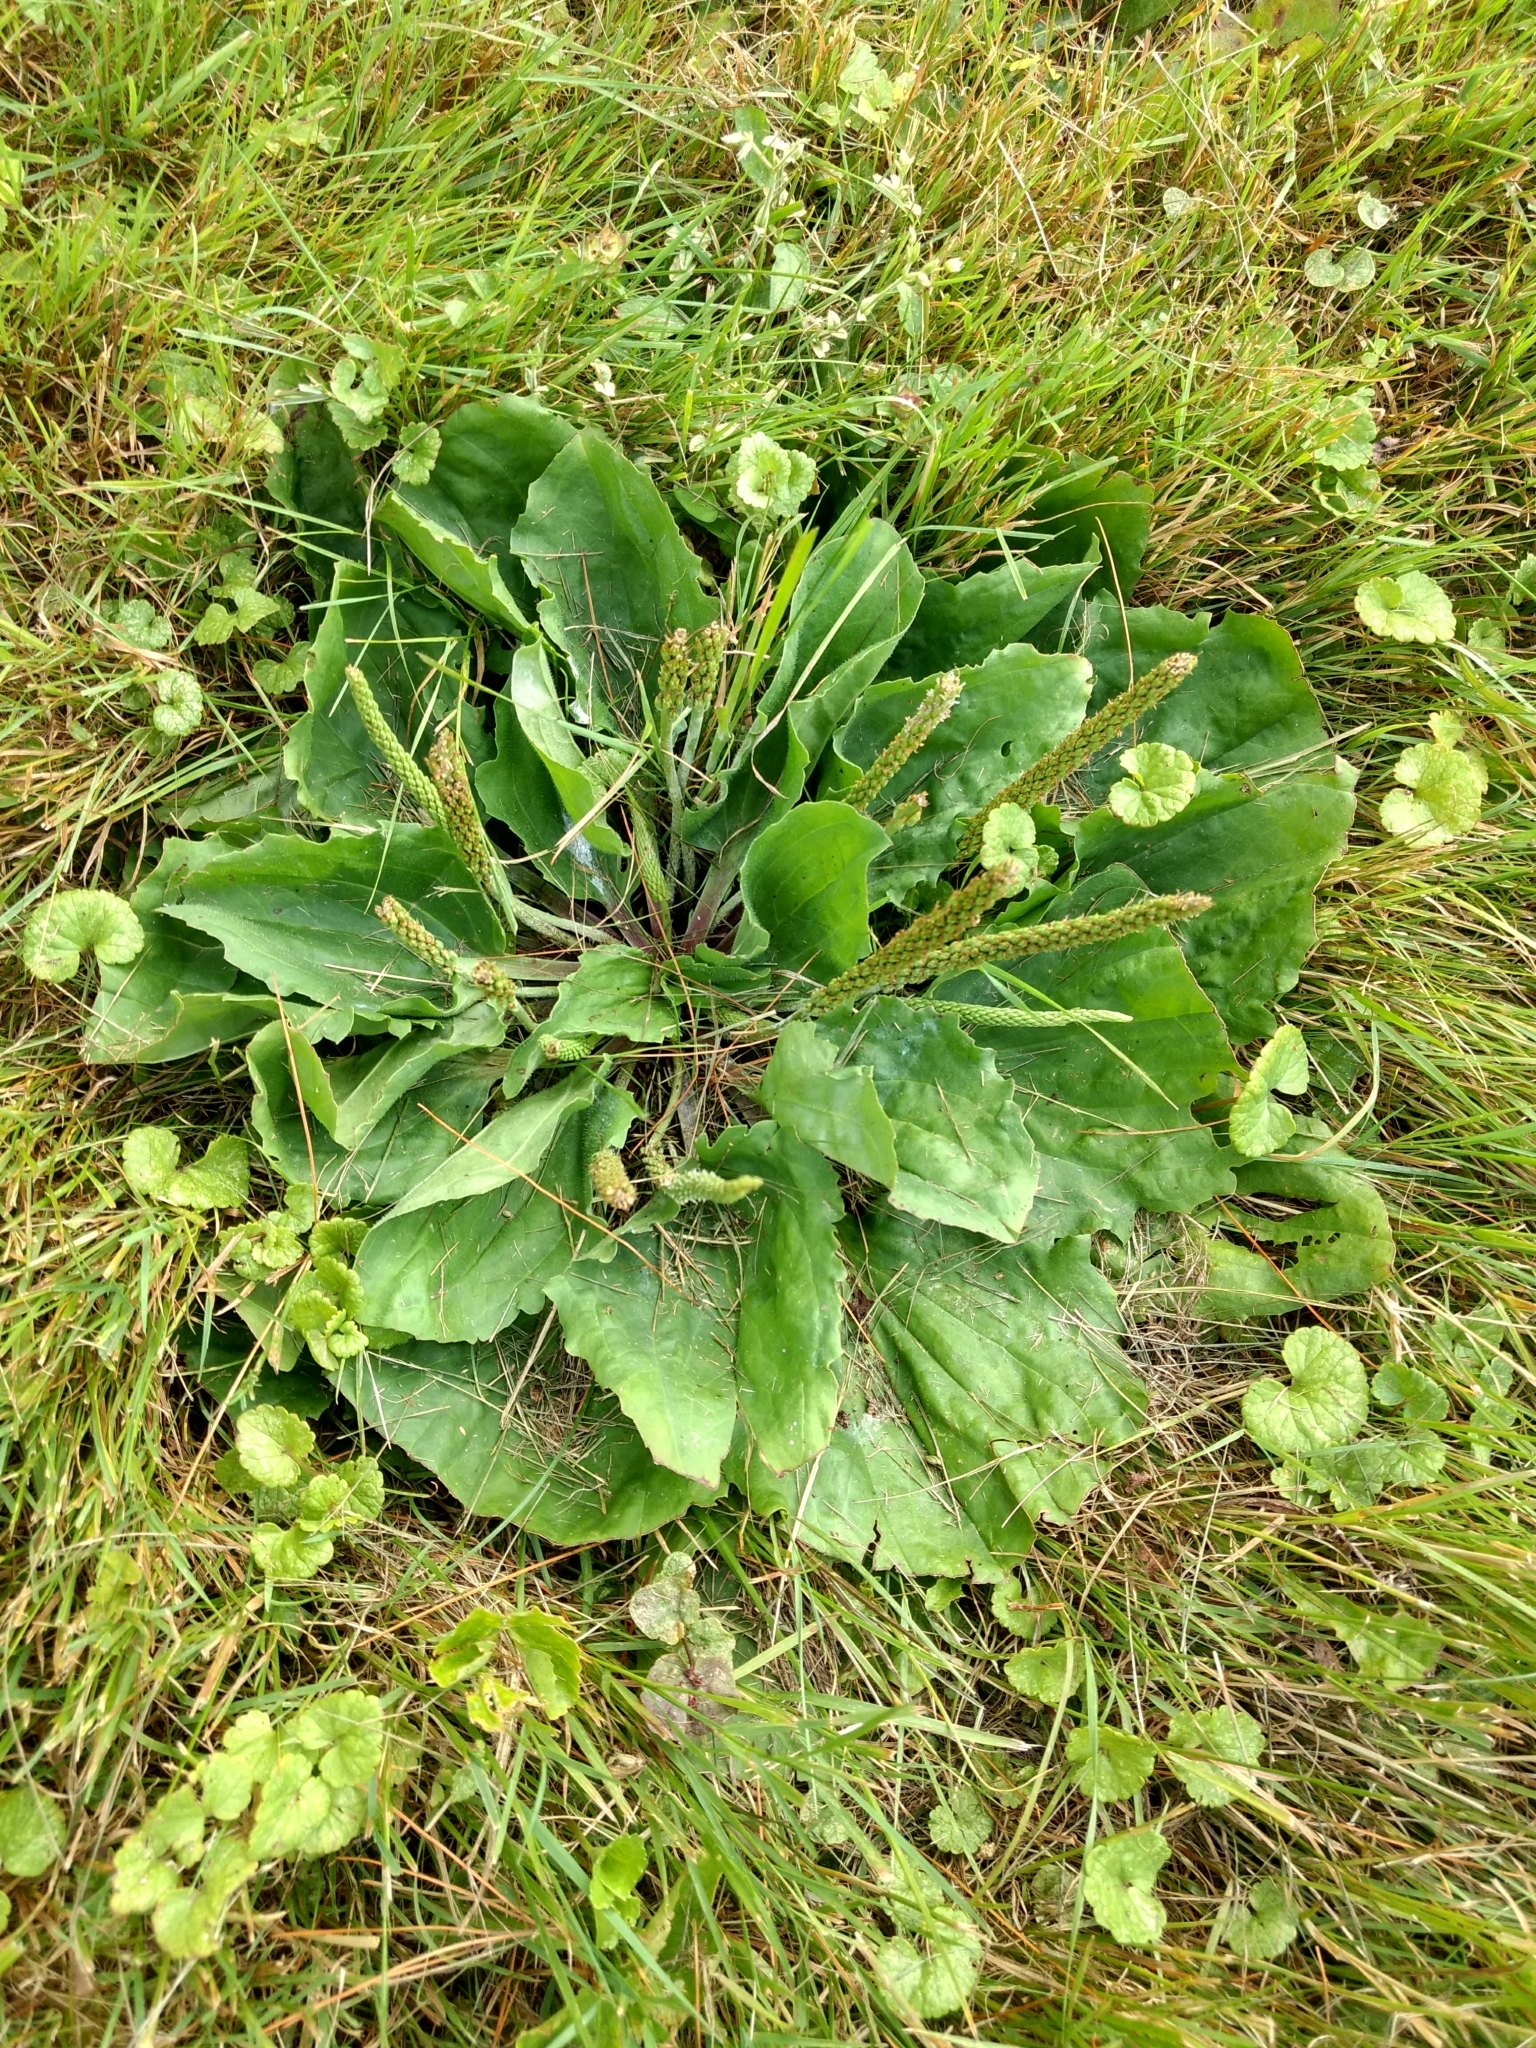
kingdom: Plantae
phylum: Tracheophyta
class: Magnoliopsida
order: Lamiales
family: Plantaginaceae
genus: Plantago
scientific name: Plantago rugelii
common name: American plantain
